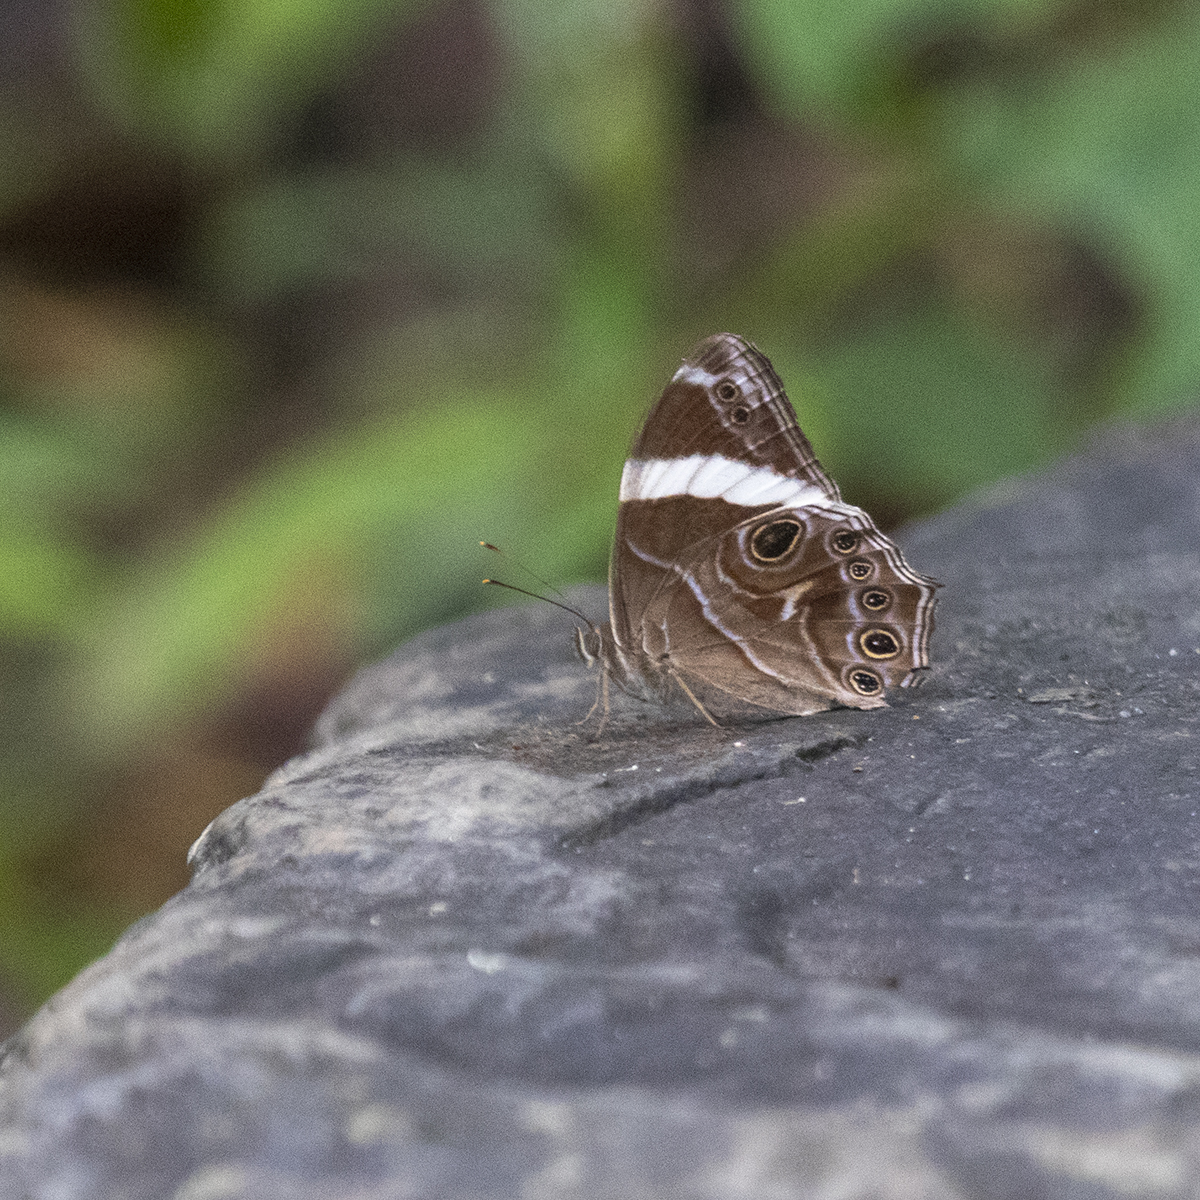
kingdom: Animalia
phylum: Arthropoda
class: Insecta
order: Lepidoptera
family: Nymphalidae
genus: Lethe
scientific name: Lethe verma
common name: Straight-banded treebrown
